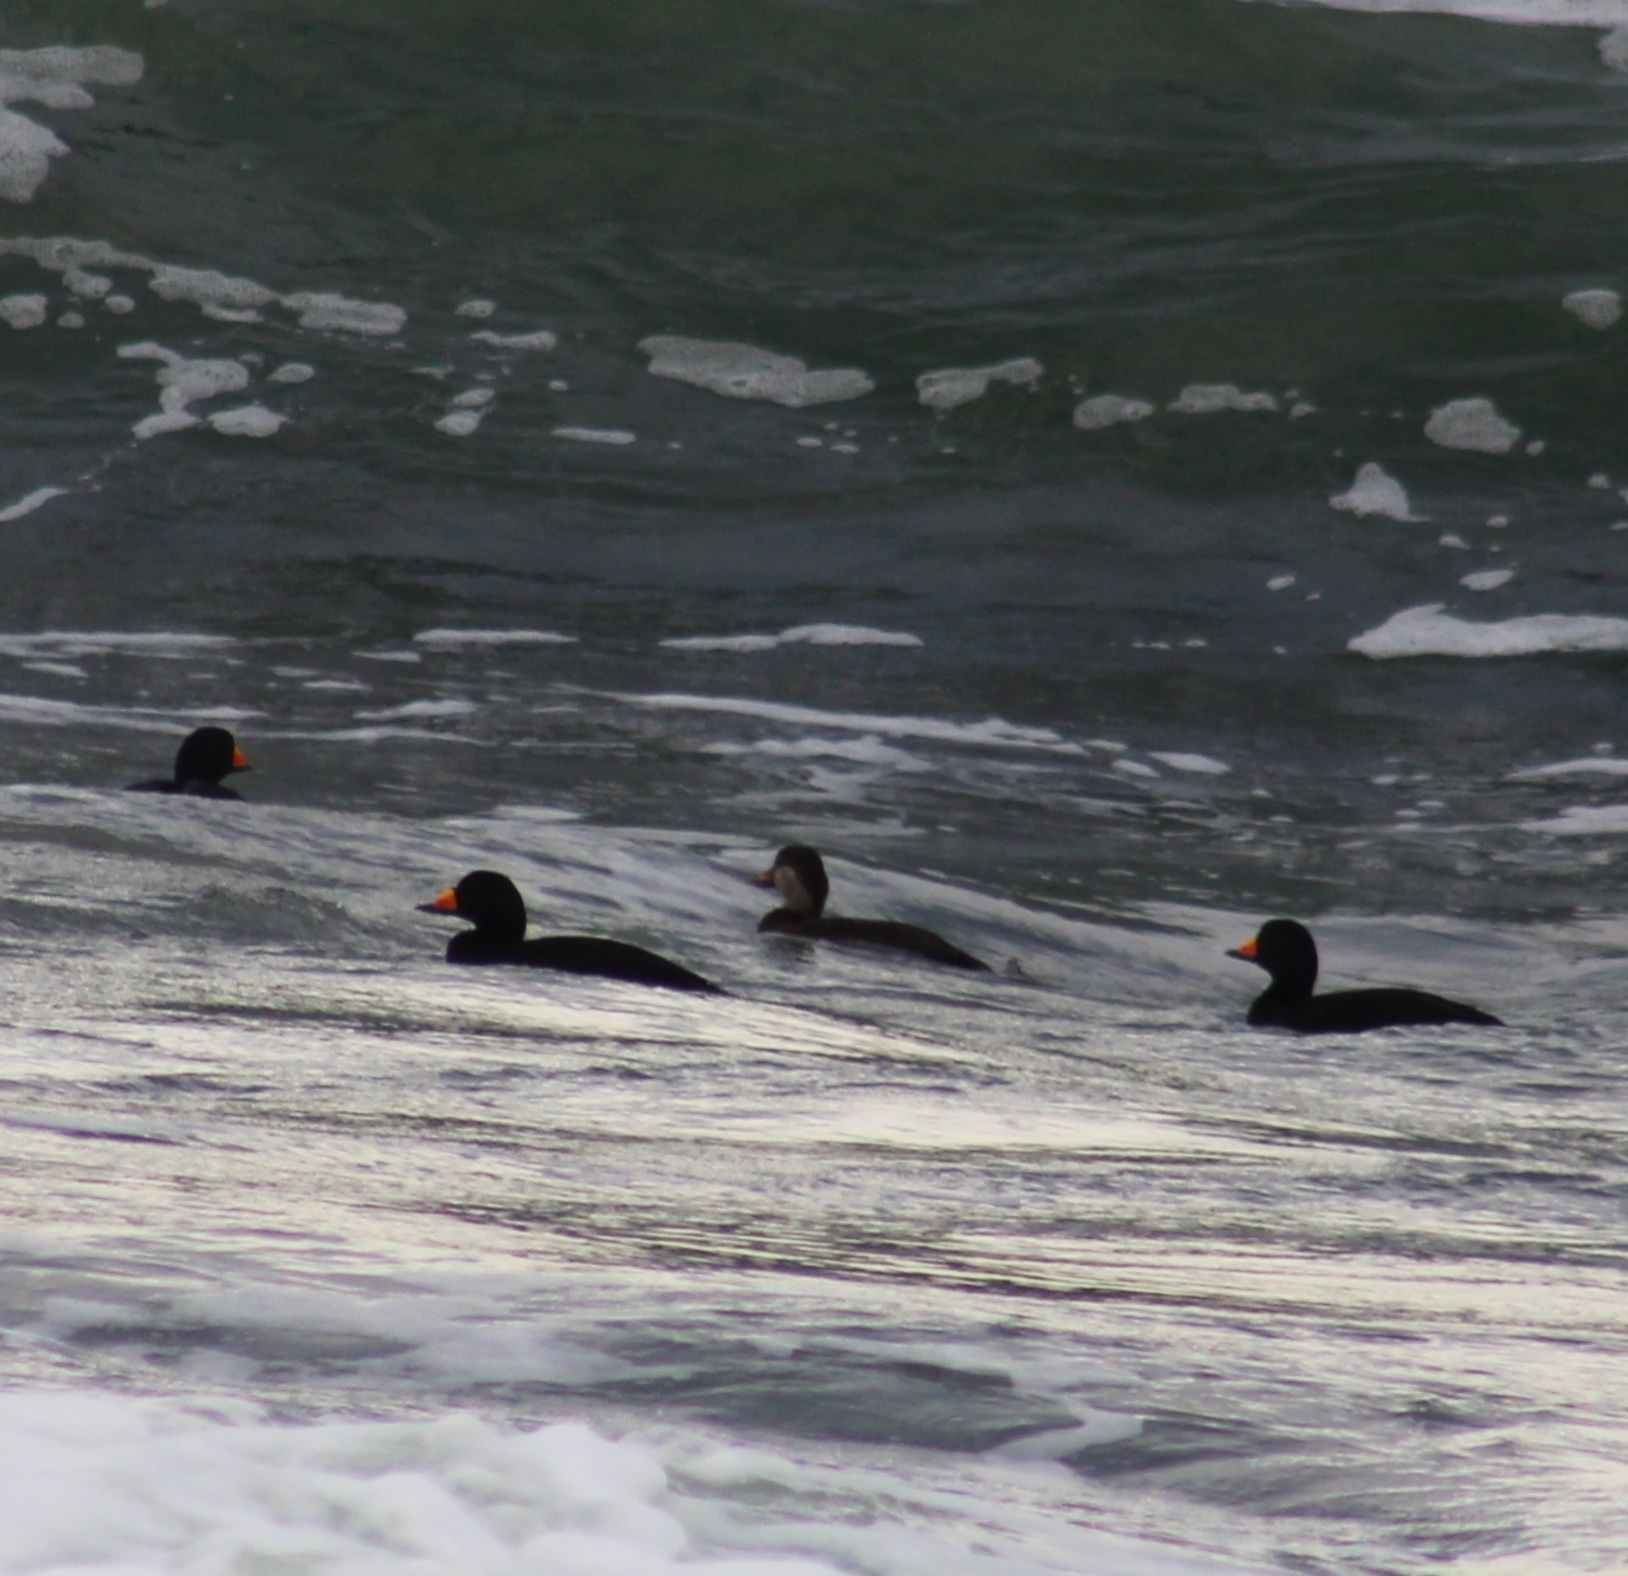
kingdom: Animalia
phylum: Chordata
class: Aves
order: Anseriformes
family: Anatidae
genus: Melanitta
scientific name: Melanitta americana
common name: Black scoter
